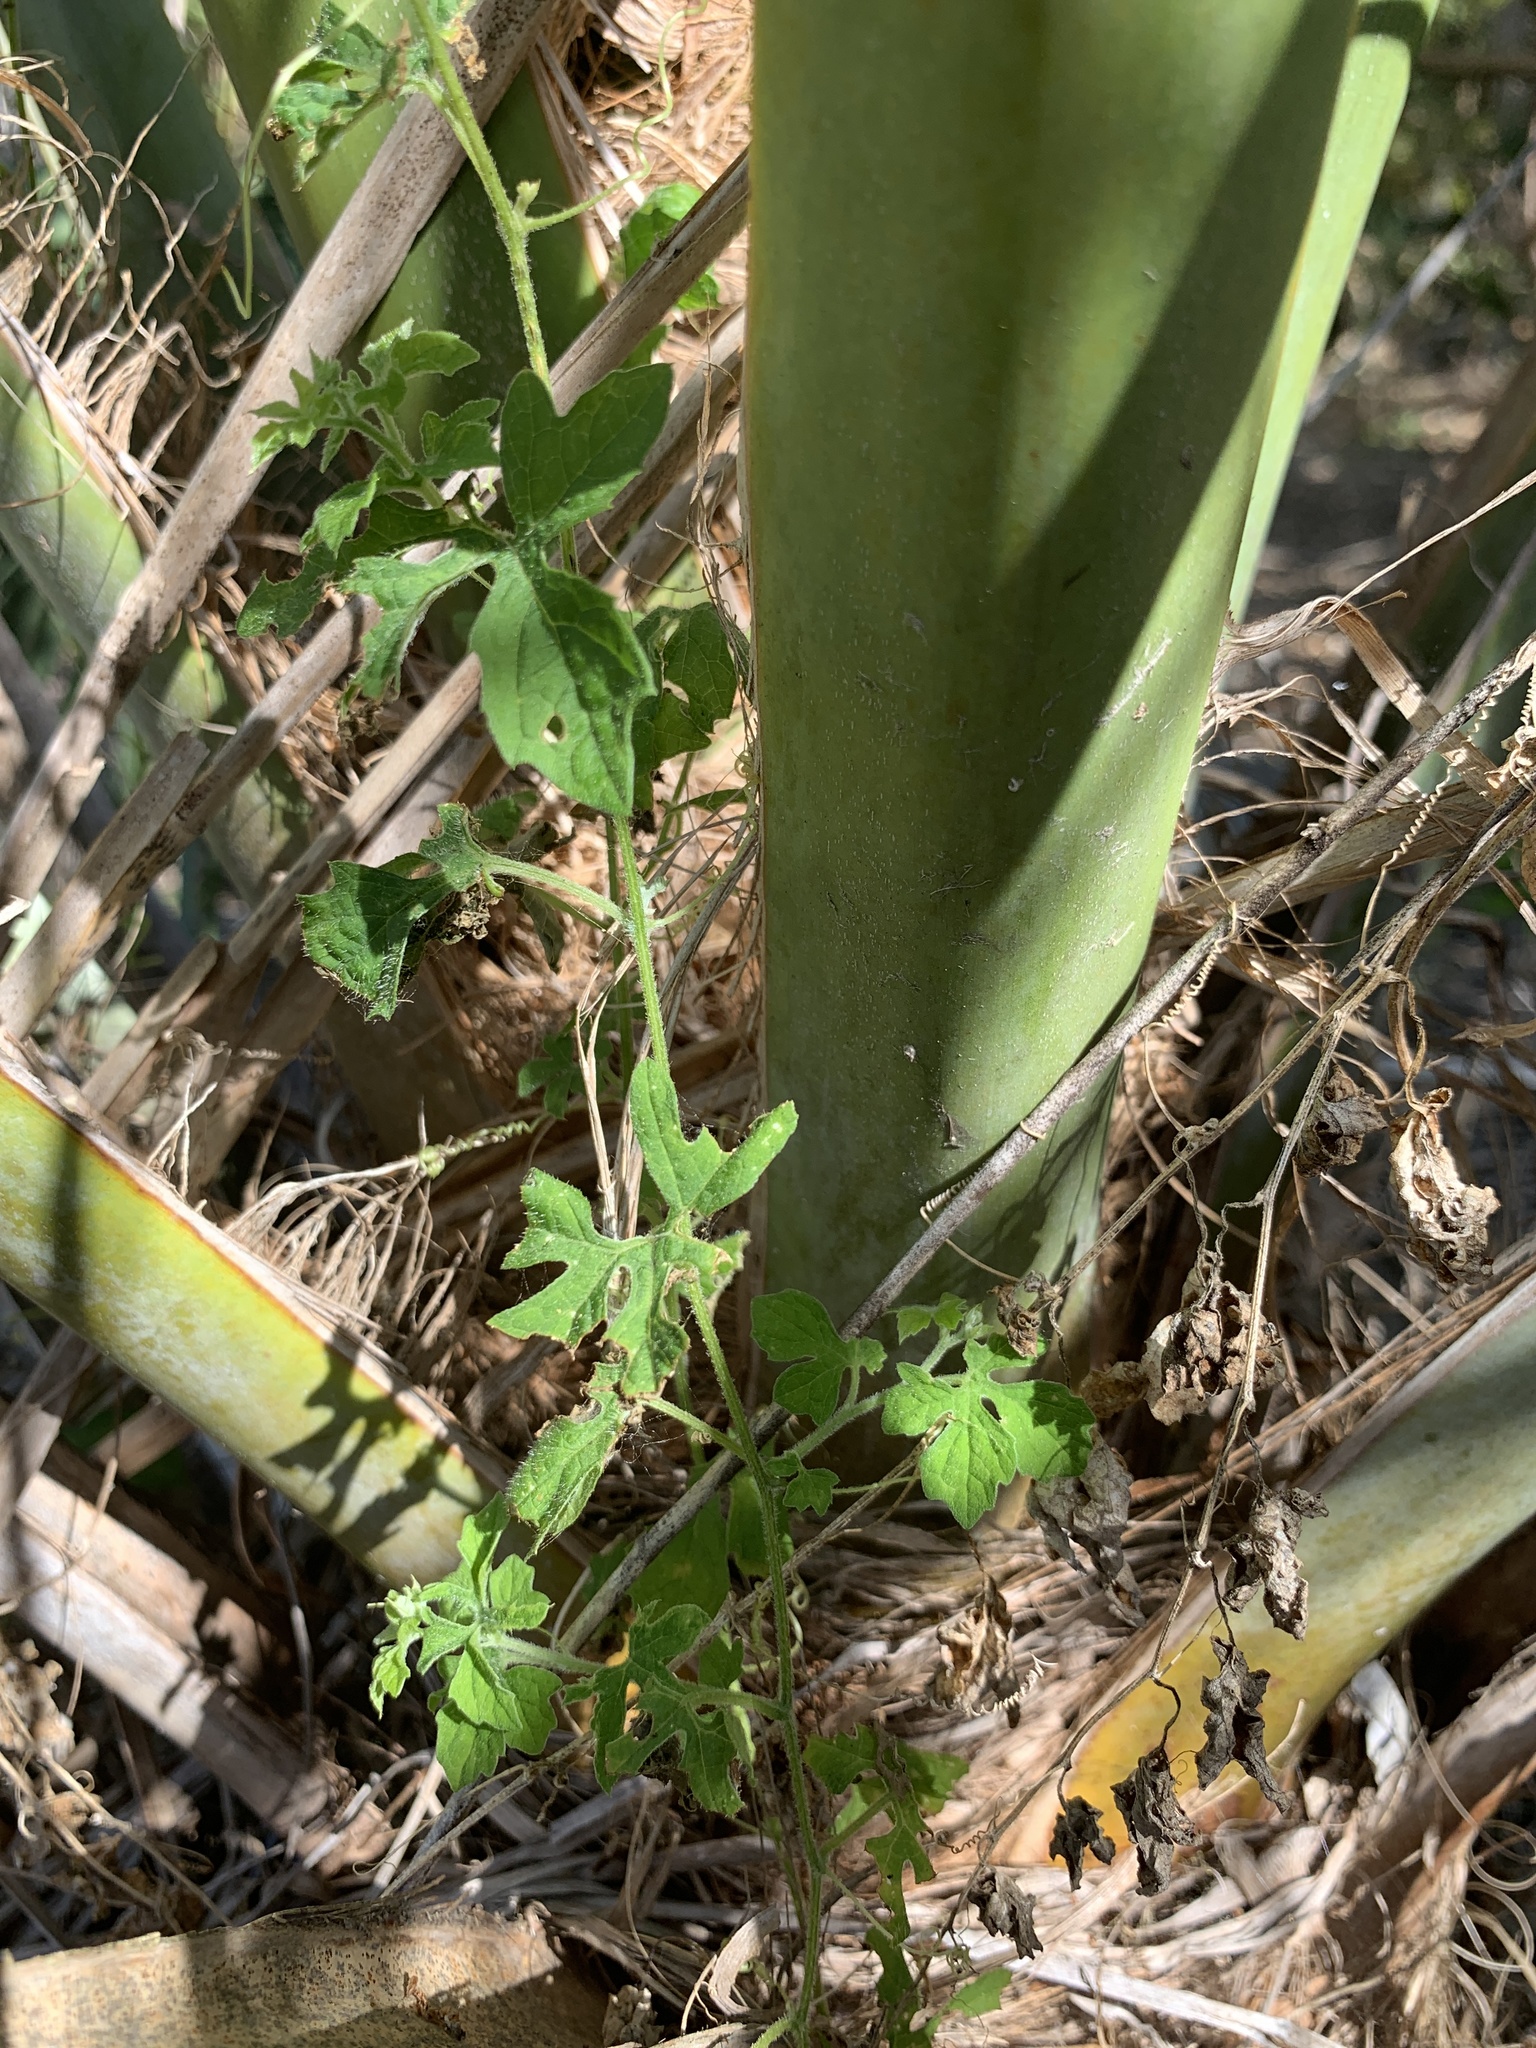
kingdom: Plantae
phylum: Tracheophyta
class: Magnoliopsida
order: Cucurbitales
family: Cucurbitaceae
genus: Momordica
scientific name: Momordica charantia
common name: Balsampear
